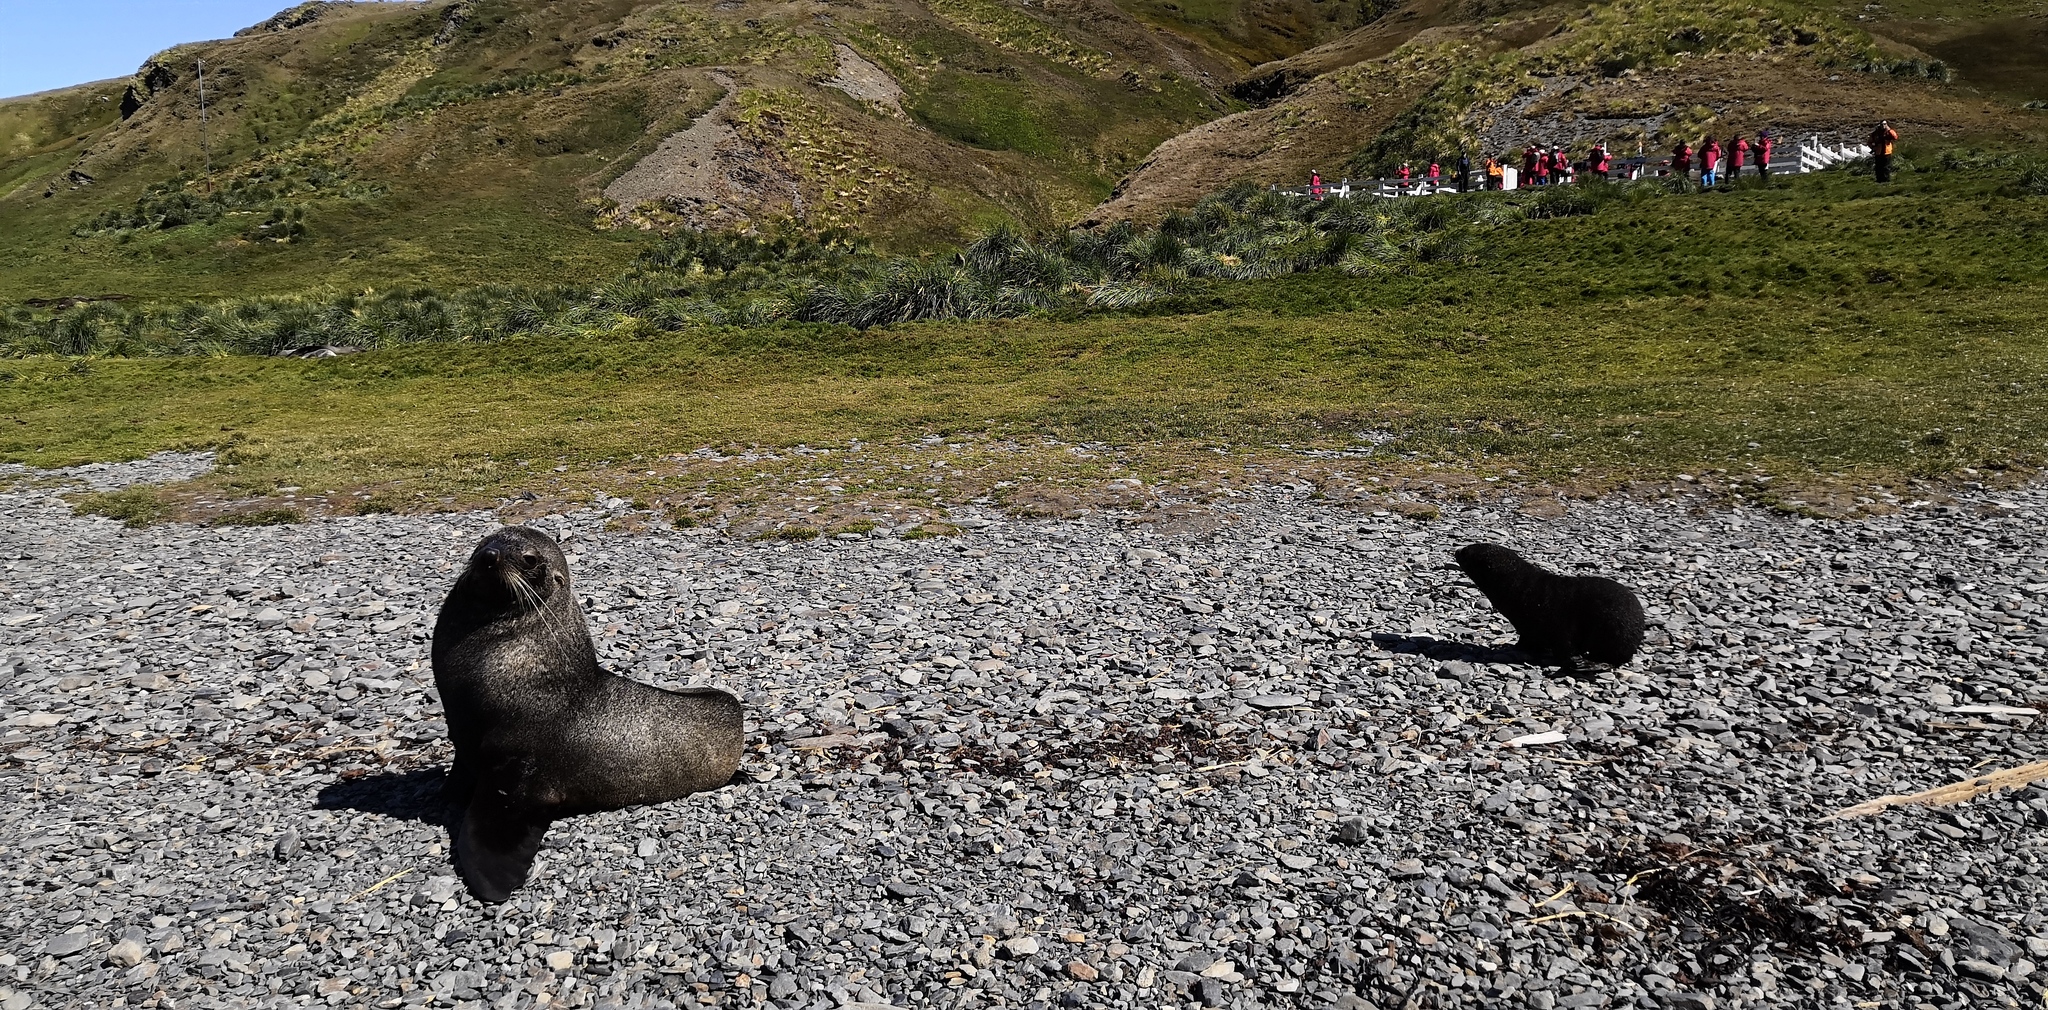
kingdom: Animalia
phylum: Chordata
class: Mammalia
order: Carnivora
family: Otariidae
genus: Arctocephalus
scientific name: Arctocephalus gazella
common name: Antarctic fur seal
